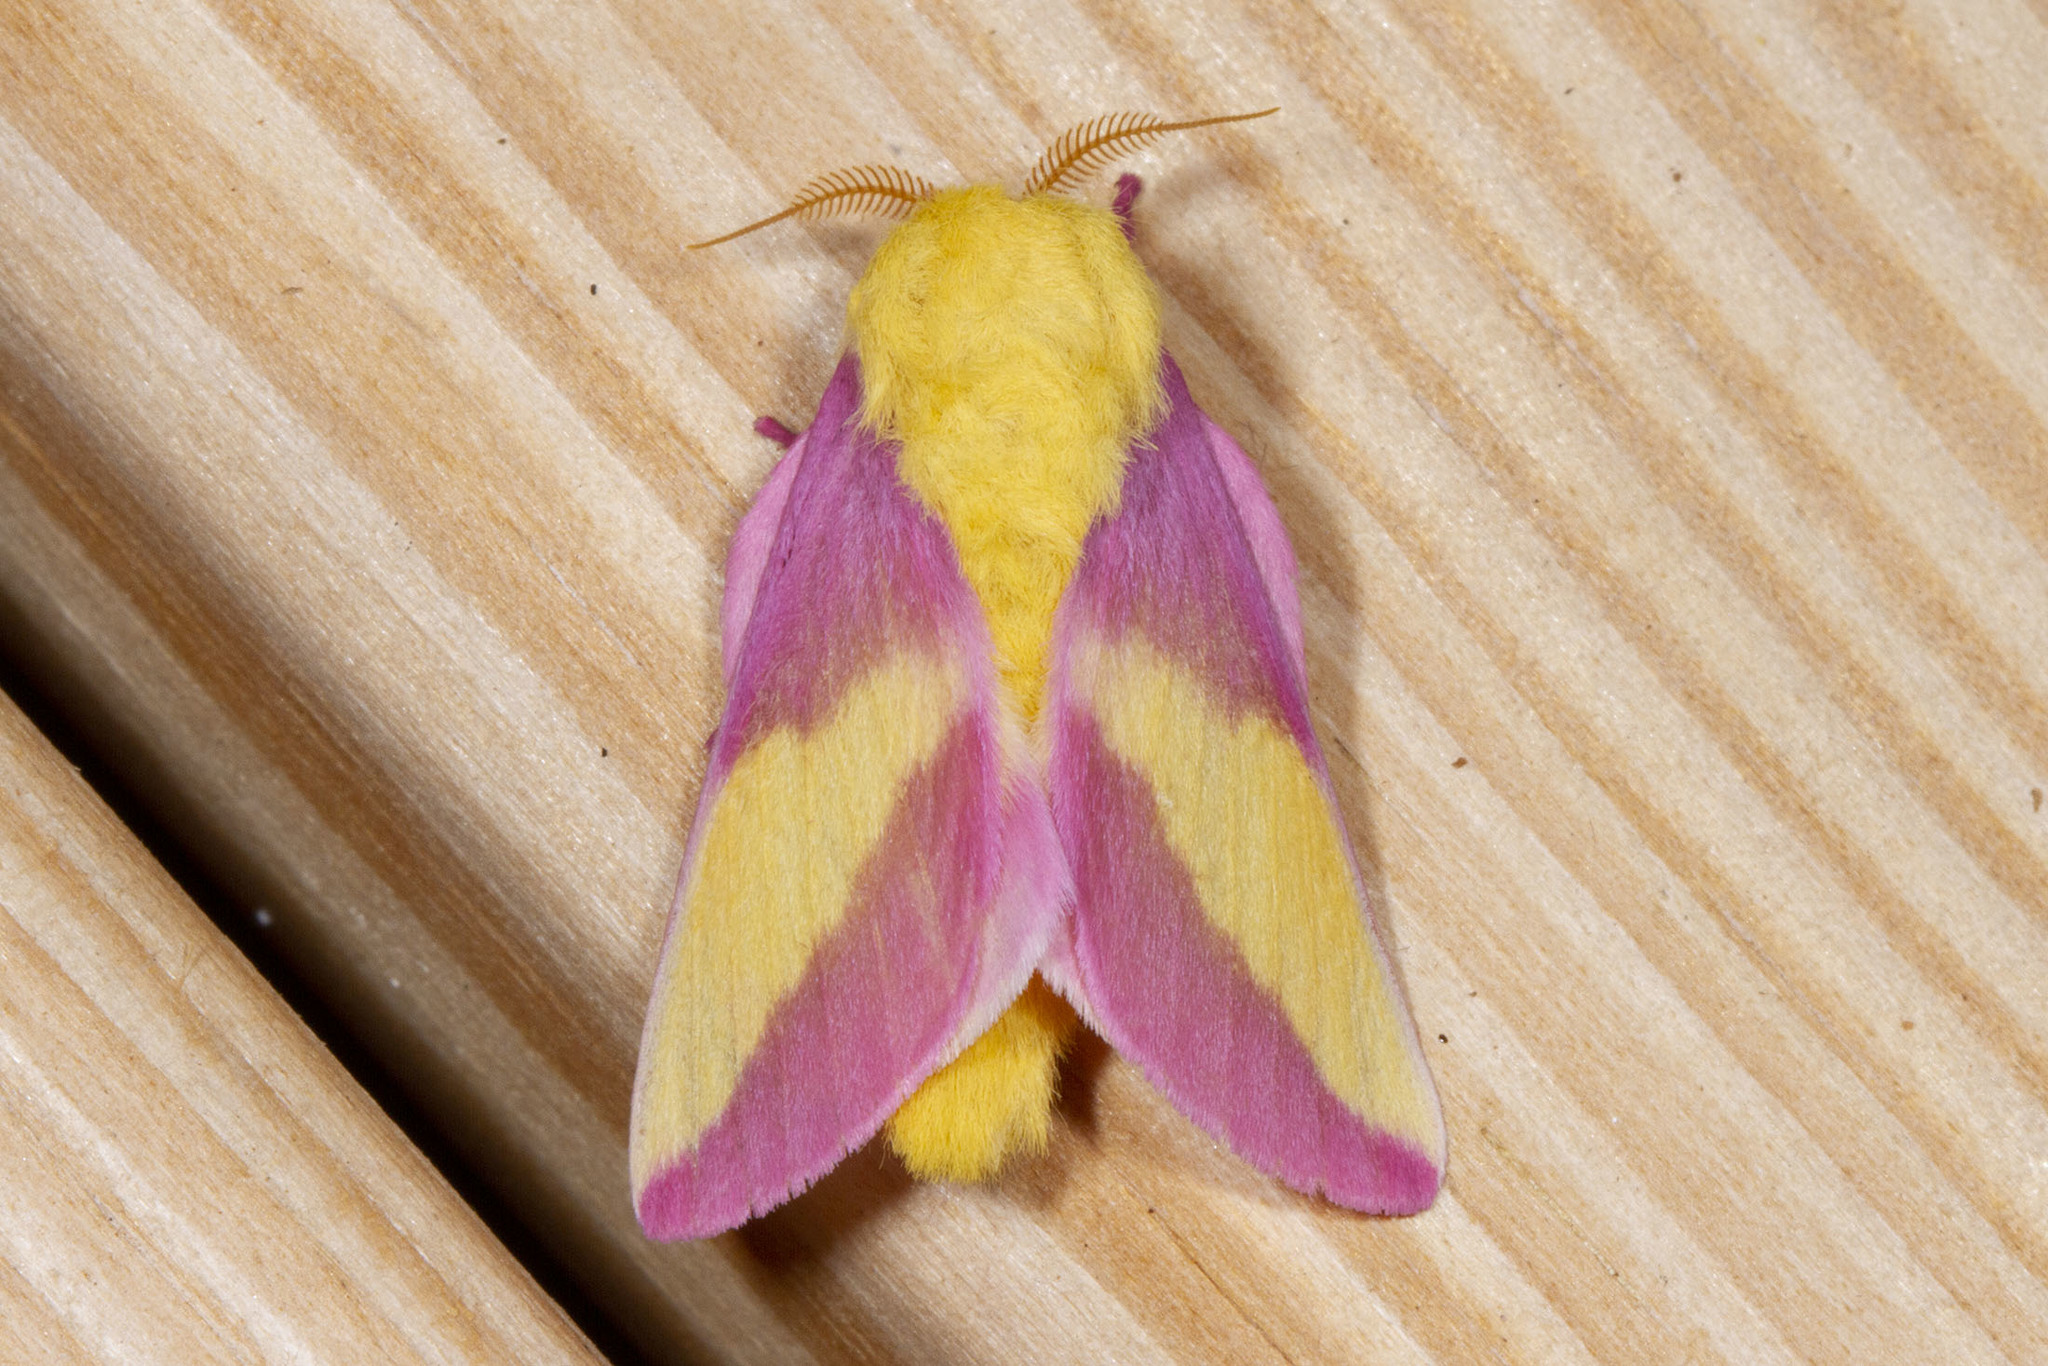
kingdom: Animalia
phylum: Arthropoda
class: Insecta
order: Lepidoptera
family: Saturniidae
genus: Dryocampa
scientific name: Dryocampa rubicunda
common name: Rosy maple moth
